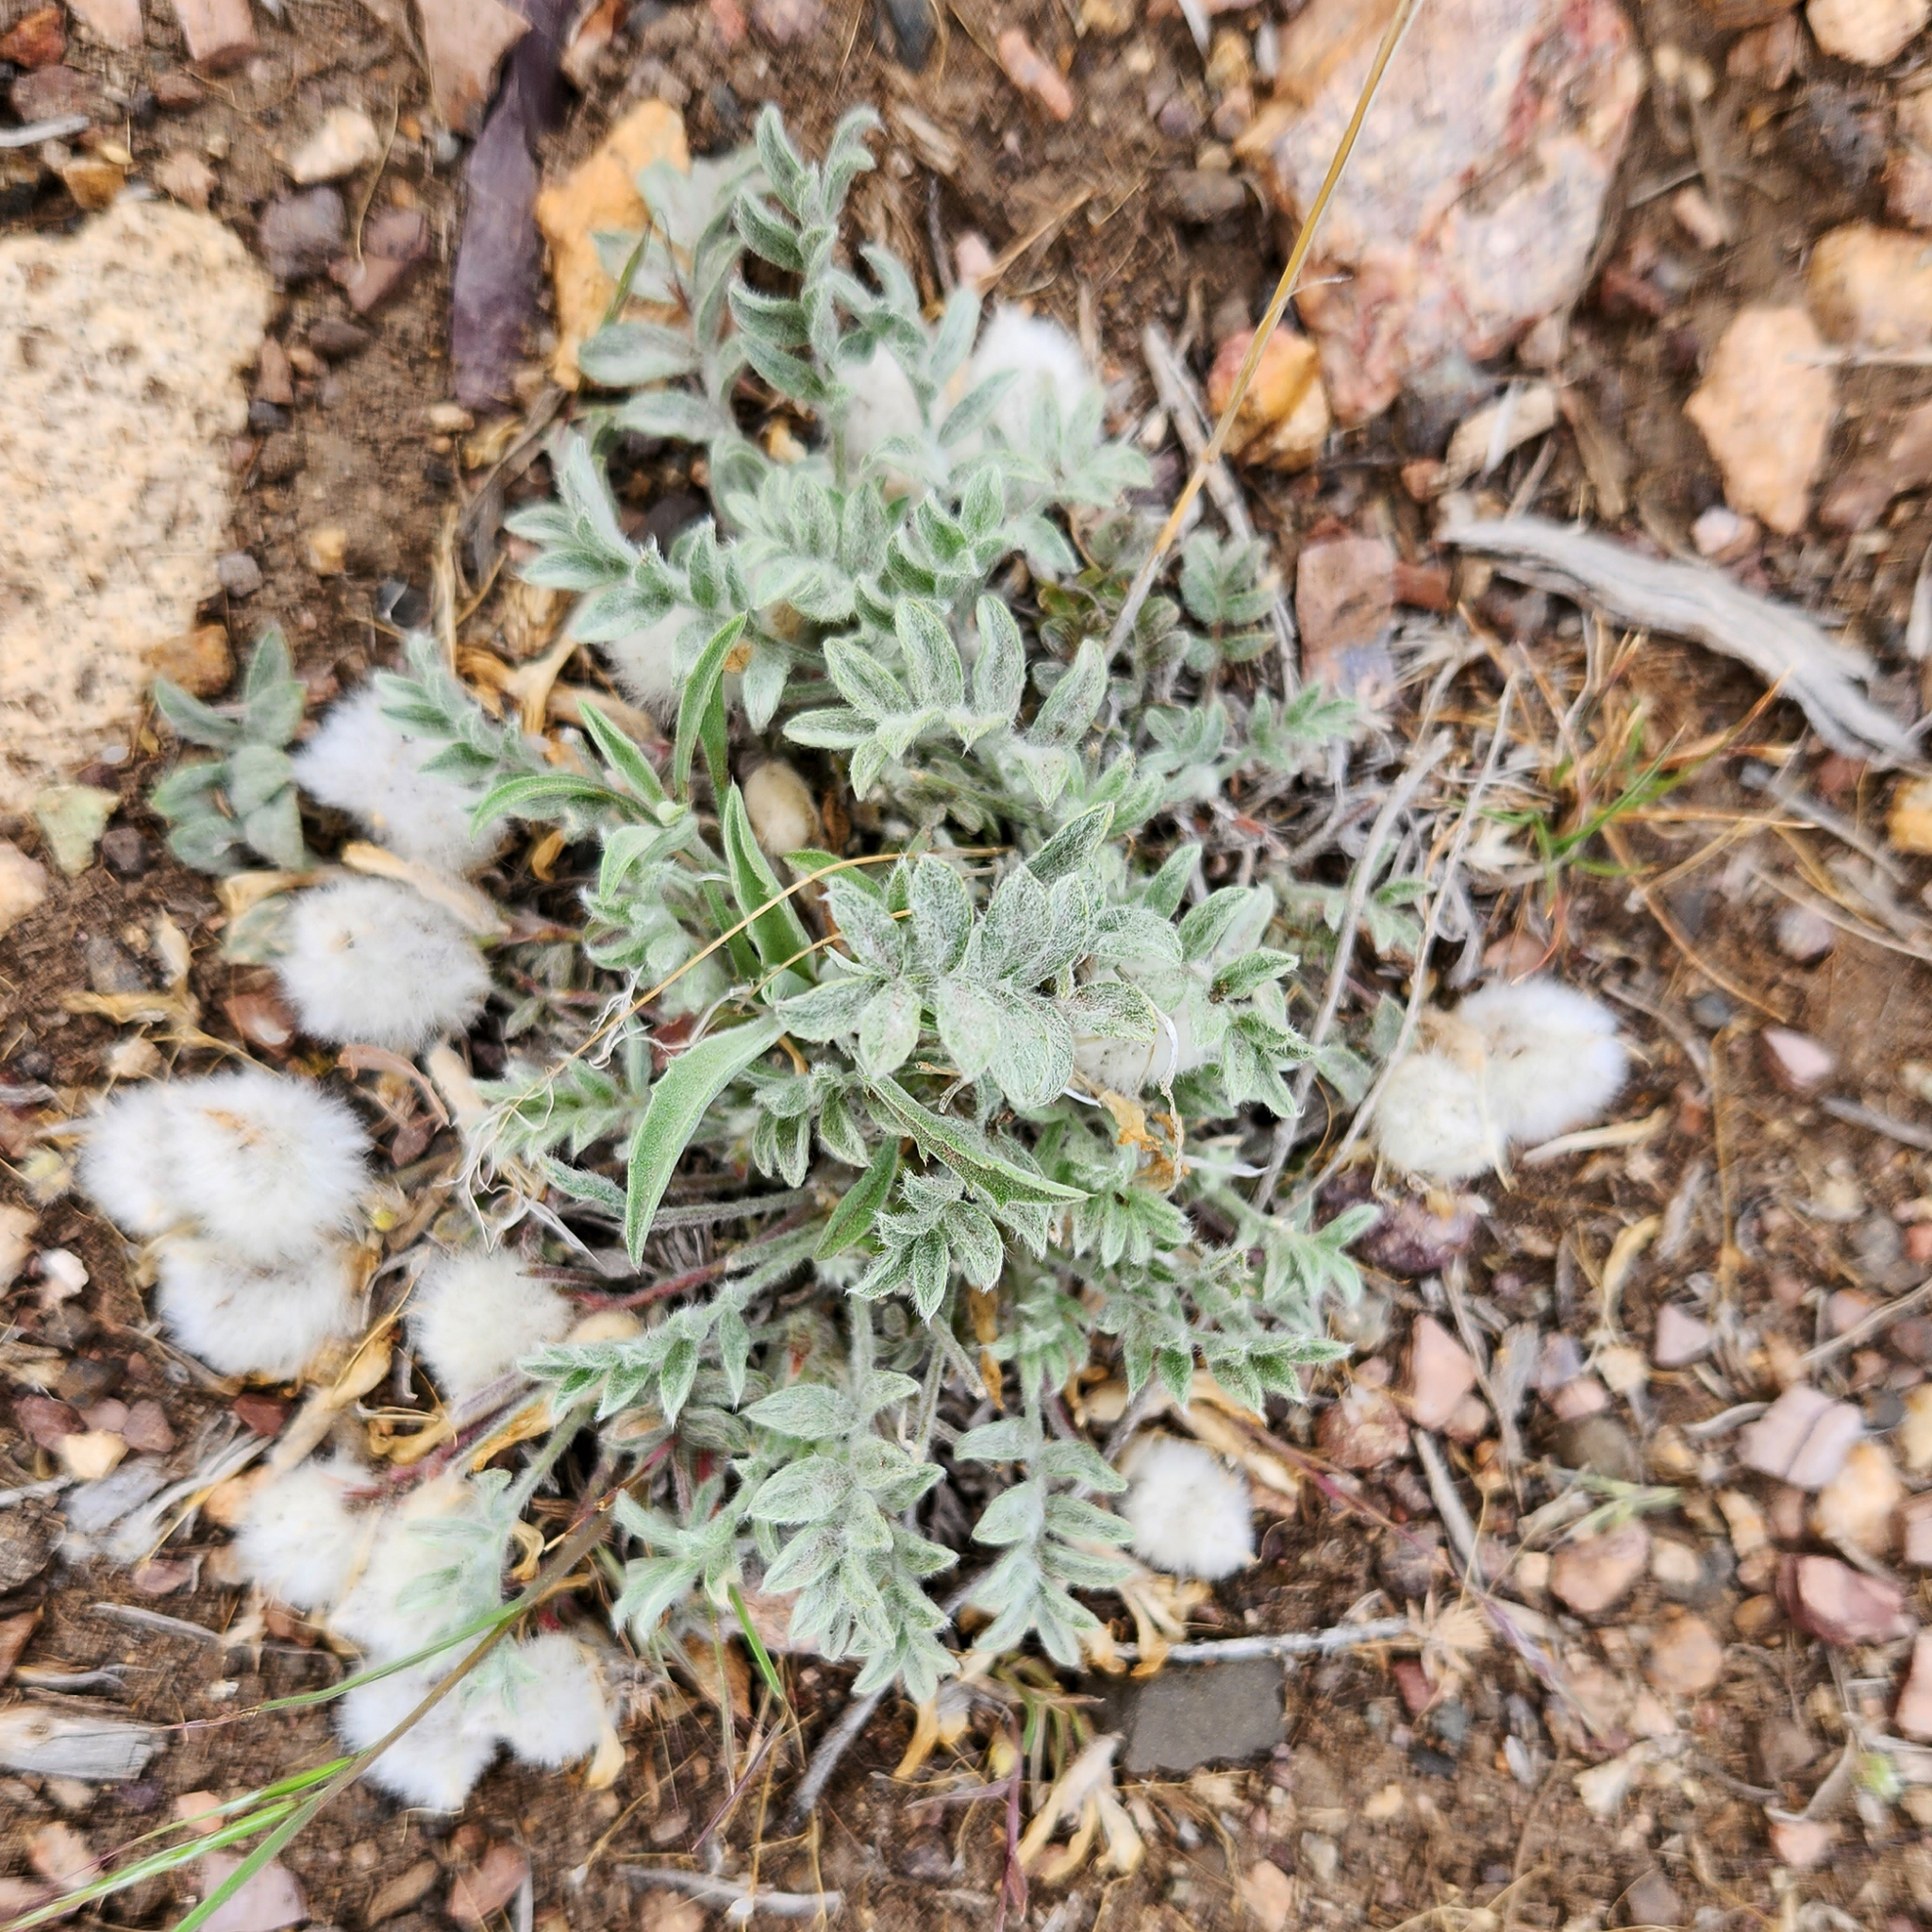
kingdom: Plantae
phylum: Tracheophyta
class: Magnoliopsida
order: Fabales
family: Fabaceae
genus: Astragalus
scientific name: Astragalus purshii
